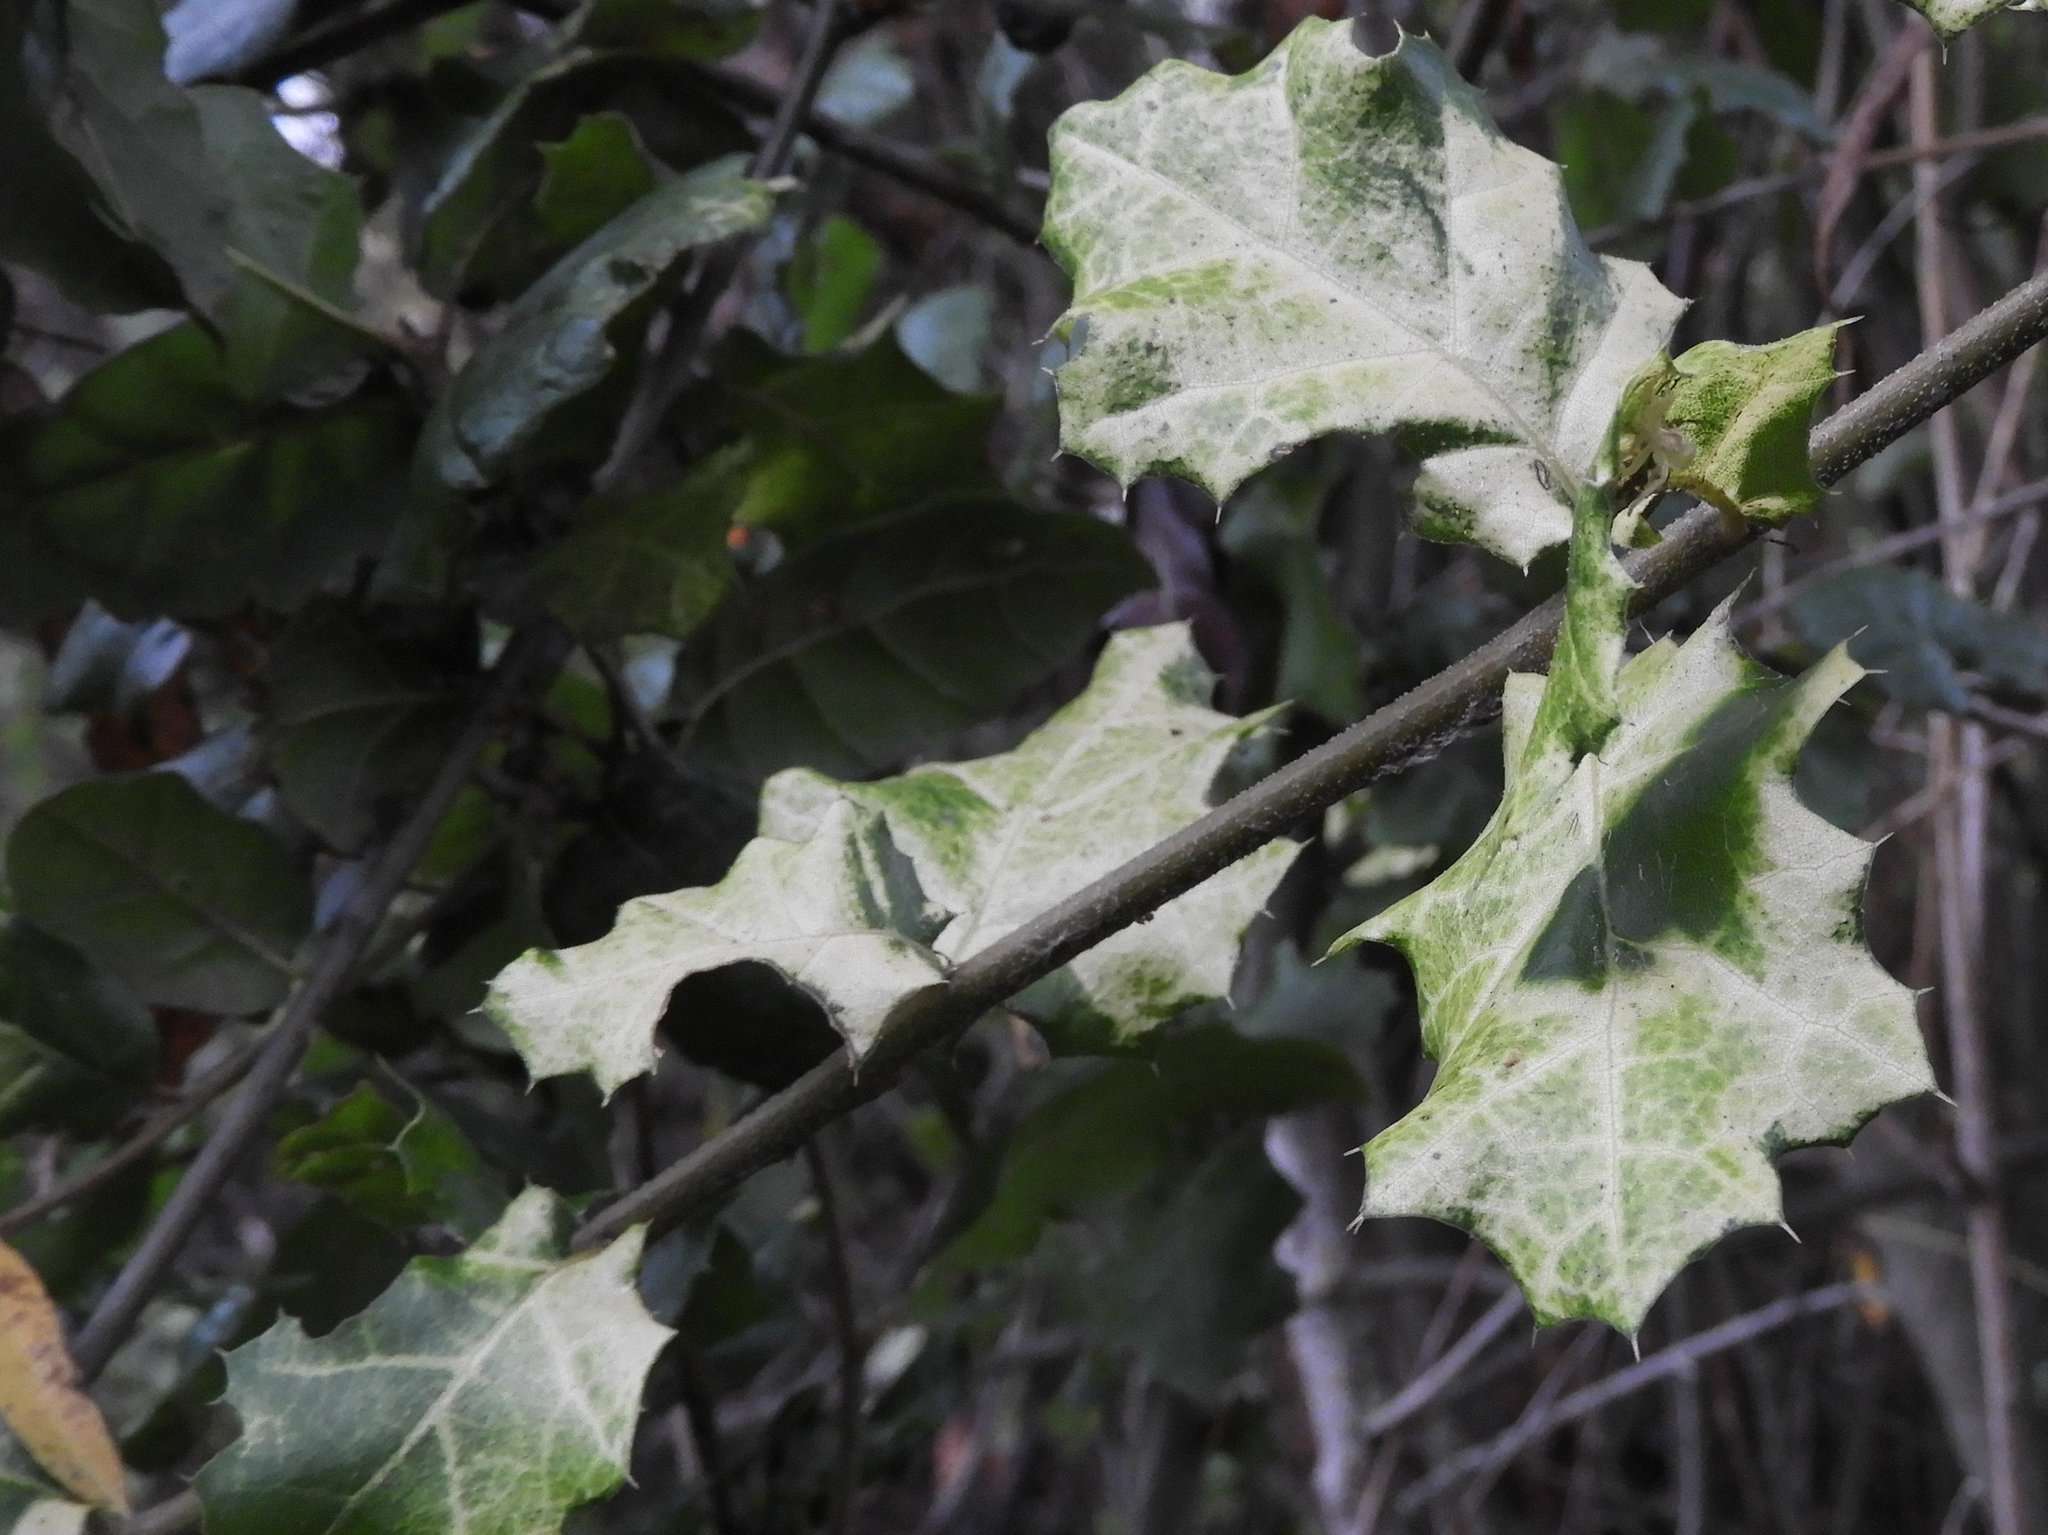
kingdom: Plantae
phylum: Tracheophyta
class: Magnoliopsida
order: Fagales
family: Fagaceae
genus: Quercus
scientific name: Quercus agrifolia
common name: California live oak
